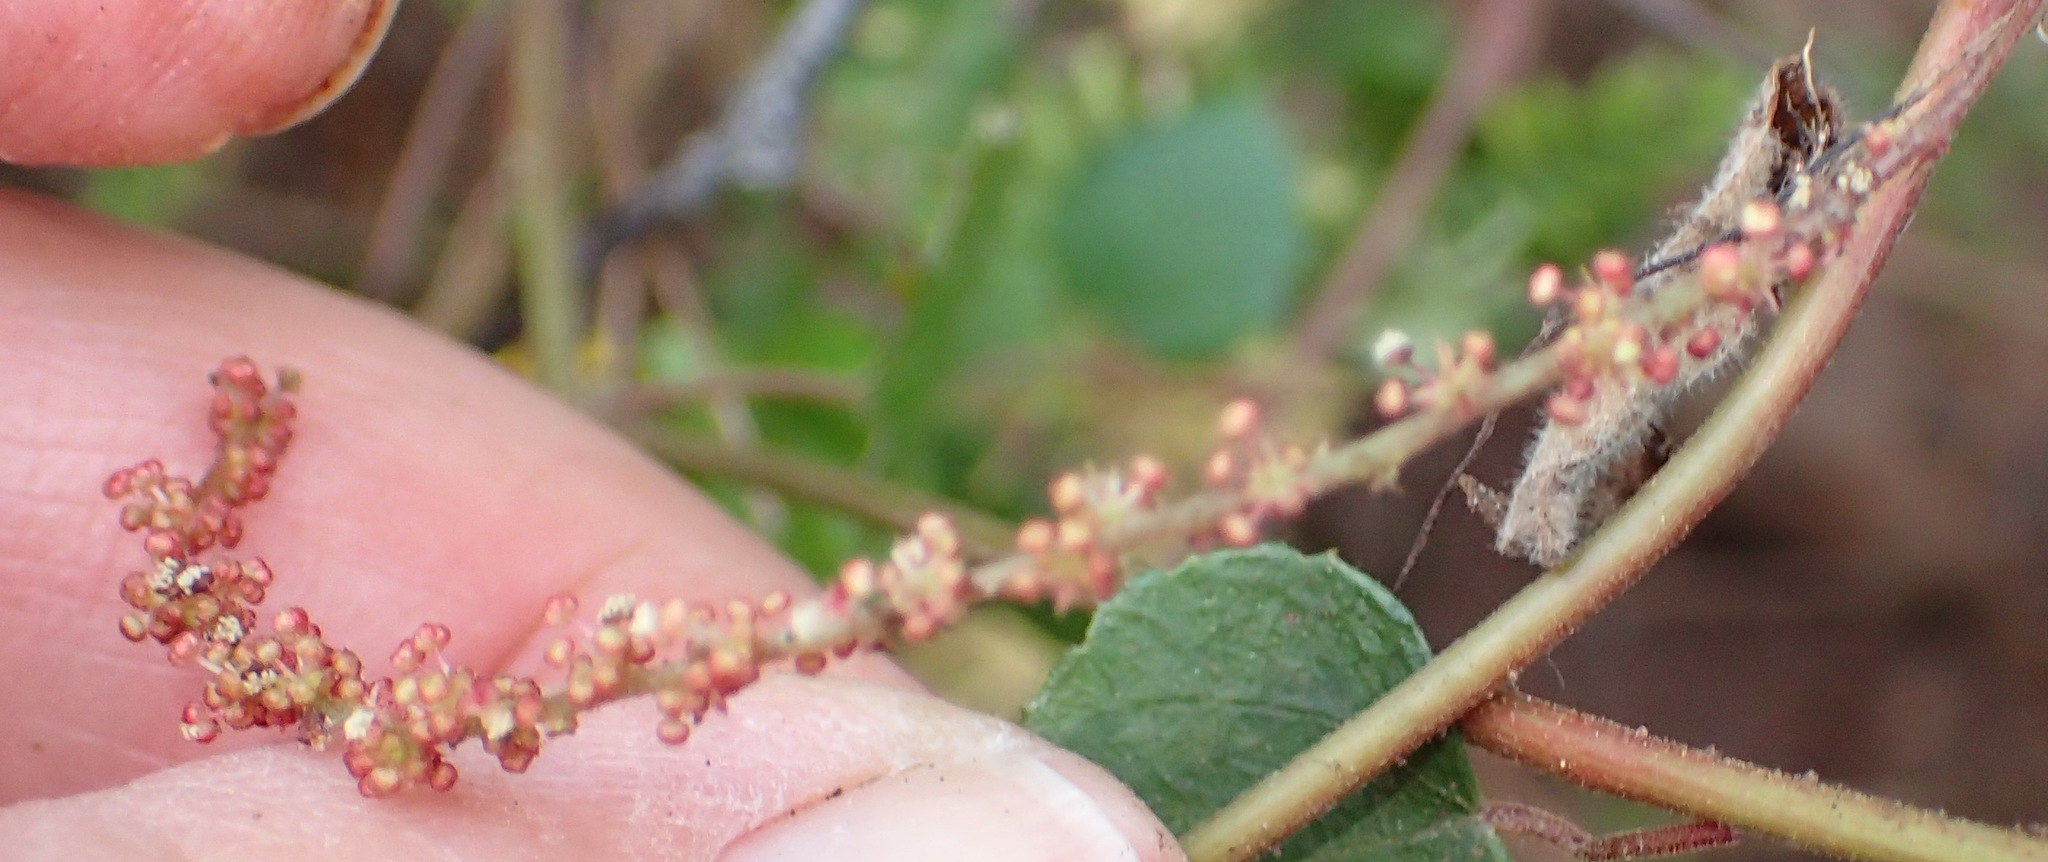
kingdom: Plantae
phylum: Tracheophyta
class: Magnoliopsida
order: Malpighiales
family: Euphorbiaceae
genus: Bernardia
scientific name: Bernardia corensis
